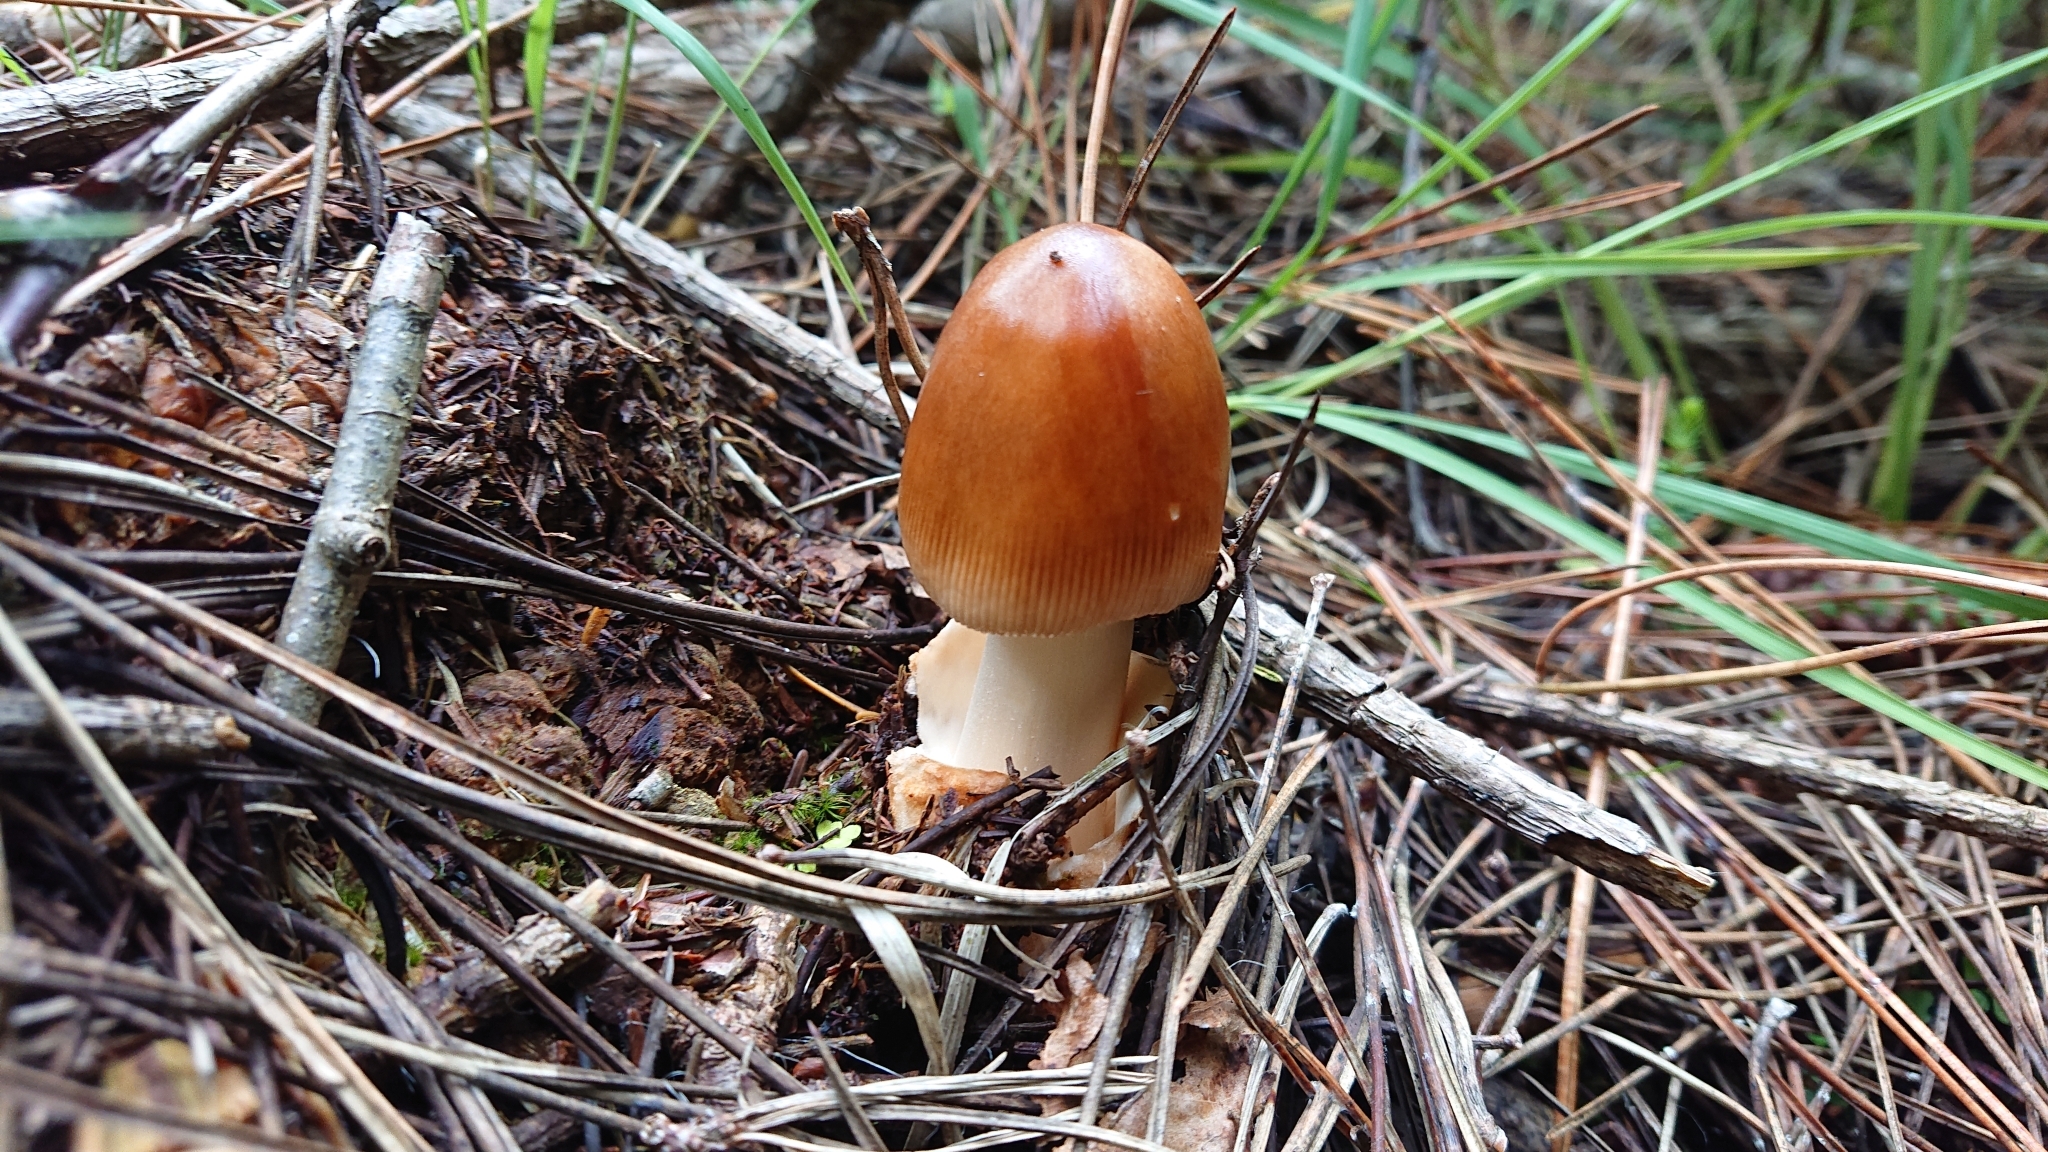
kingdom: Fungi
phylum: Basidiomycota
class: Agaricomycetes
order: Agaricales
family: Amanitaceae
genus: Amanita
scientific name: Amanita fulva
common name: Tawny grisette
